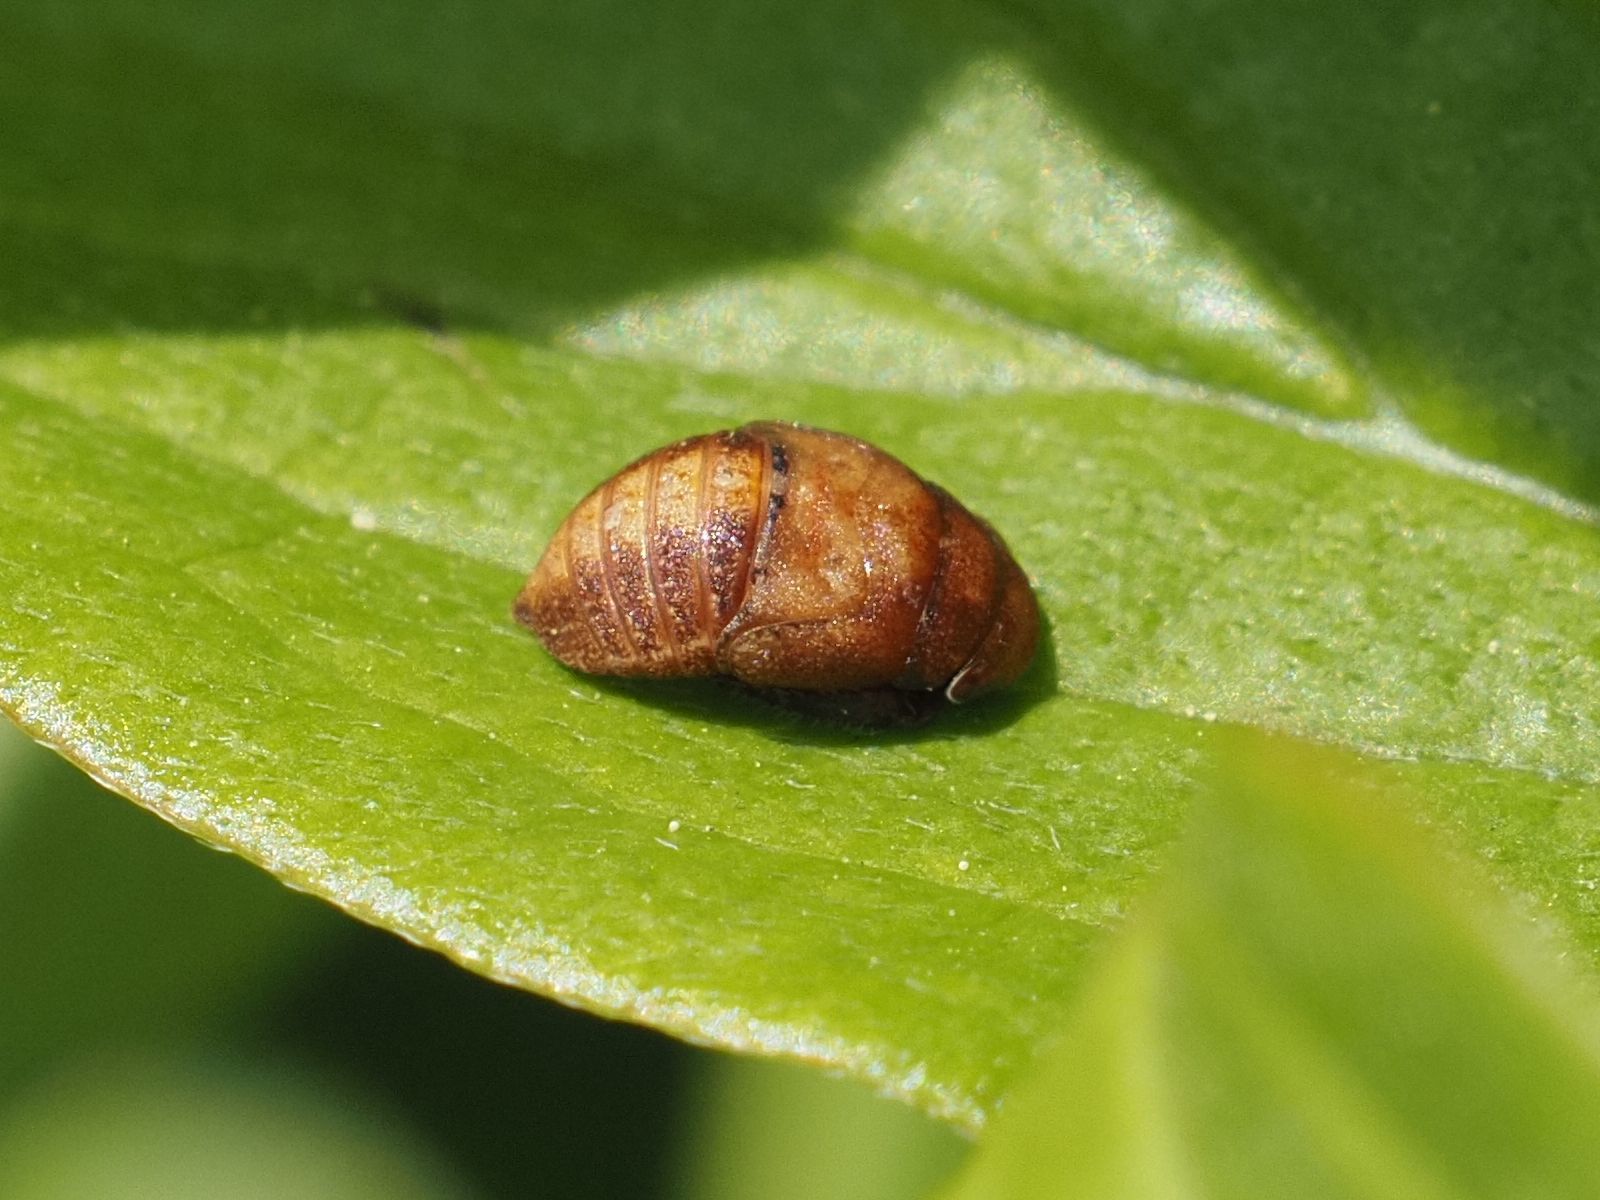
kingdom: Animalia
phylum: Arthropoda
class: Insecta
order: Hemiptera
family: Cicadellidae
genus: Penthimia
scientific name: Penthimia nigra
